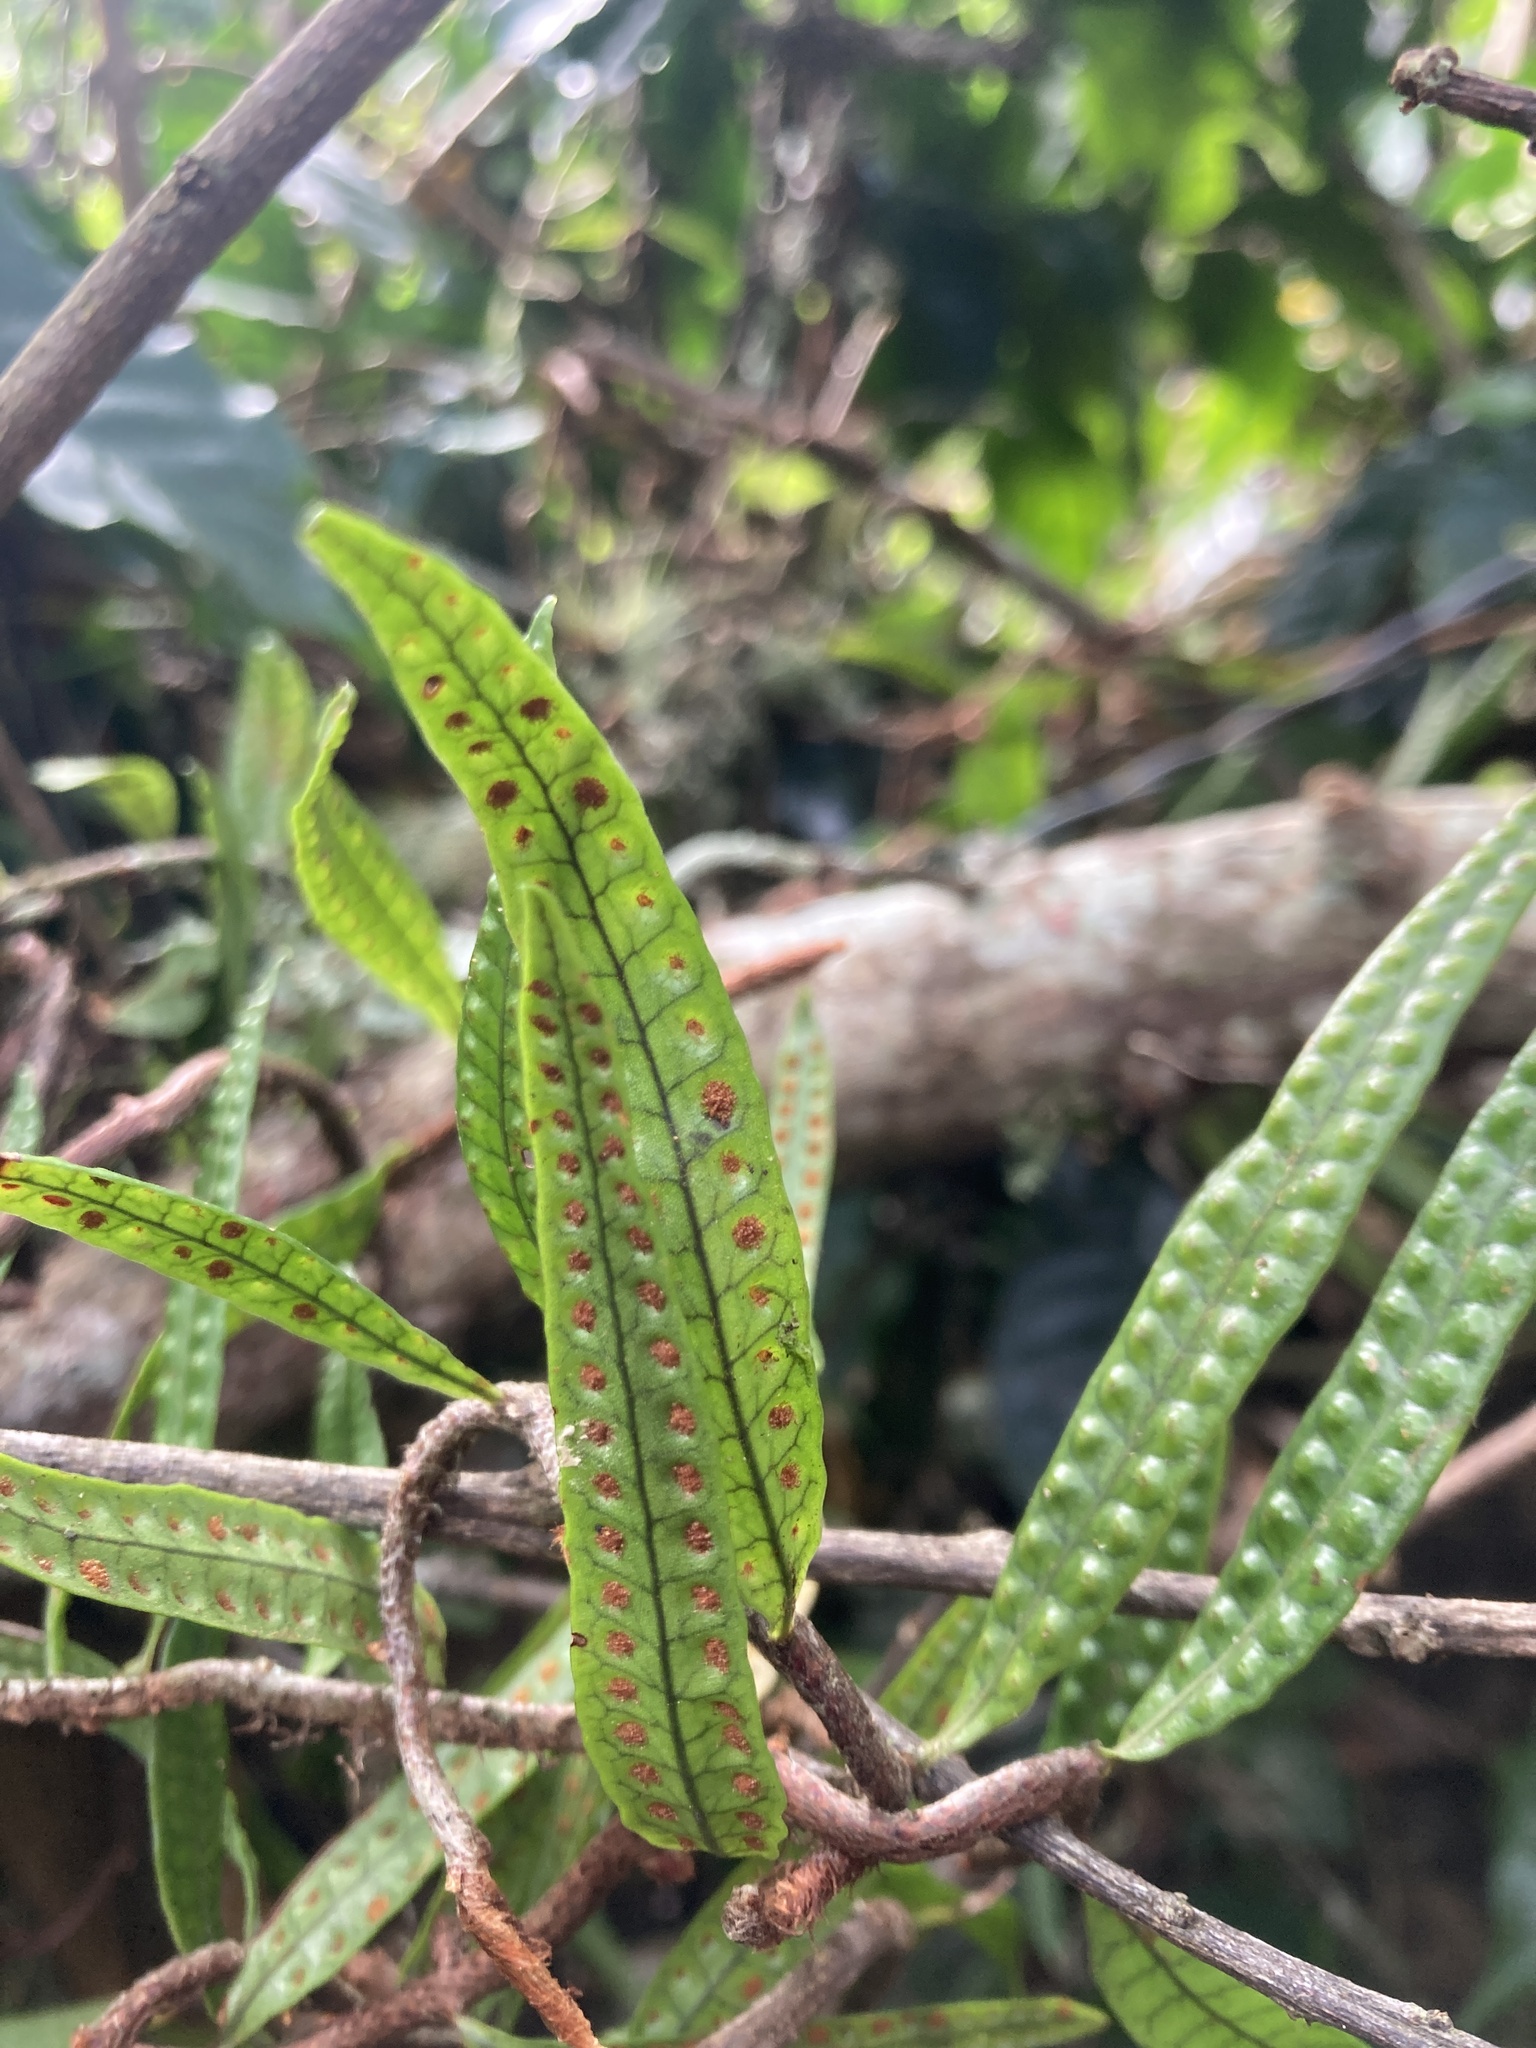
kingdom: Plantae
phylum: Tracheophyta
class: Polypodiopsida
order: Polypodiales
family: Polypodiaceae
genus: Microgramma
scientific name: Microgramma lycopodioides
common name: Bastard catclaw
